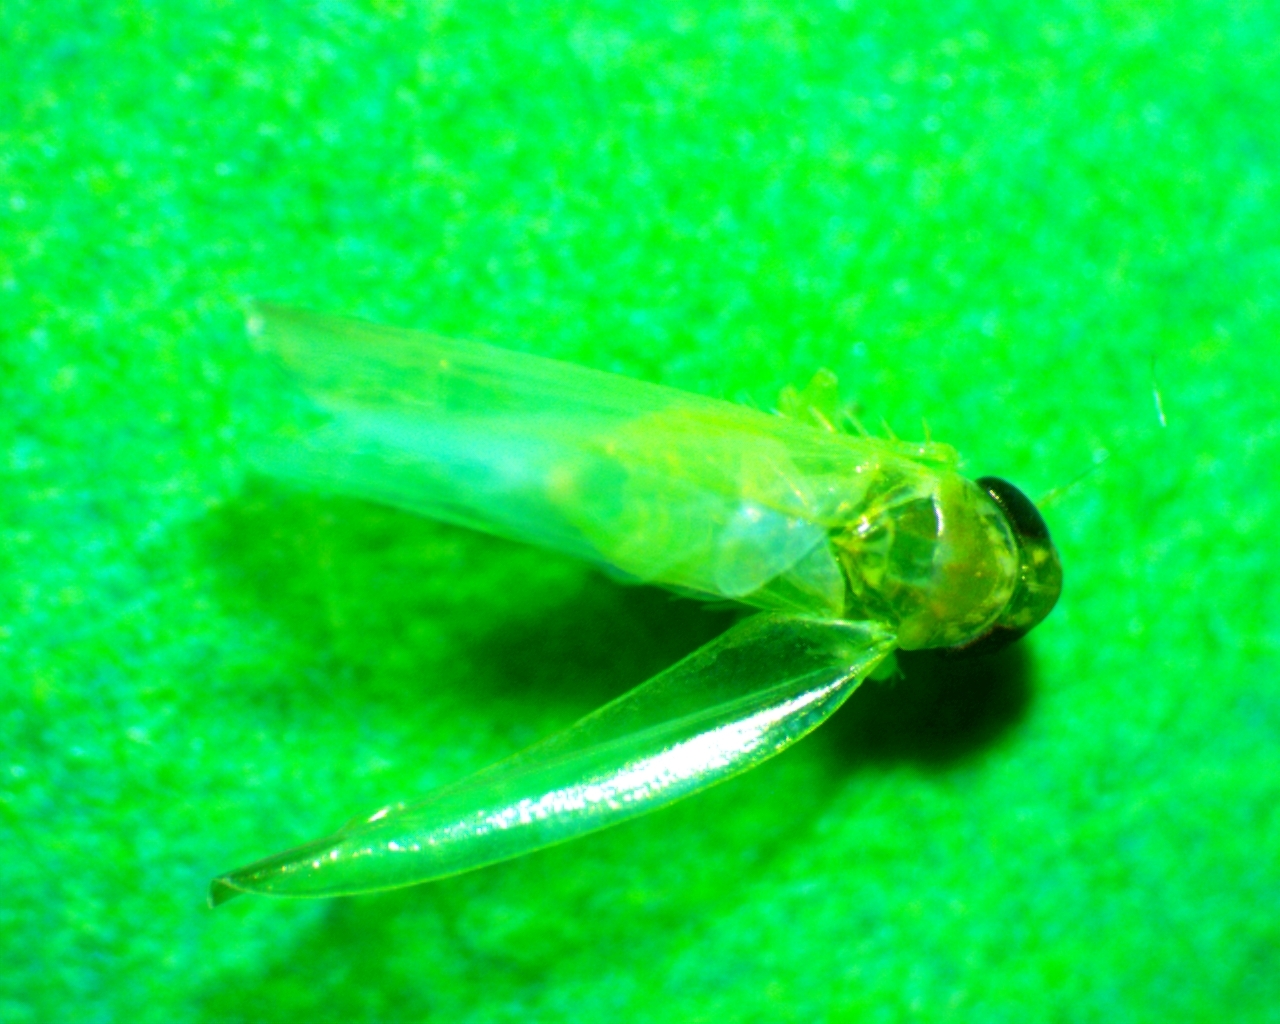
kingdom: Animalia
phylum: Arthropoda
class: Insecta
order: Hemiptera
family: Cicadellidae
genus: Empoasca
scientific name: Empoasca fabae
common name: Potato leafhopper
